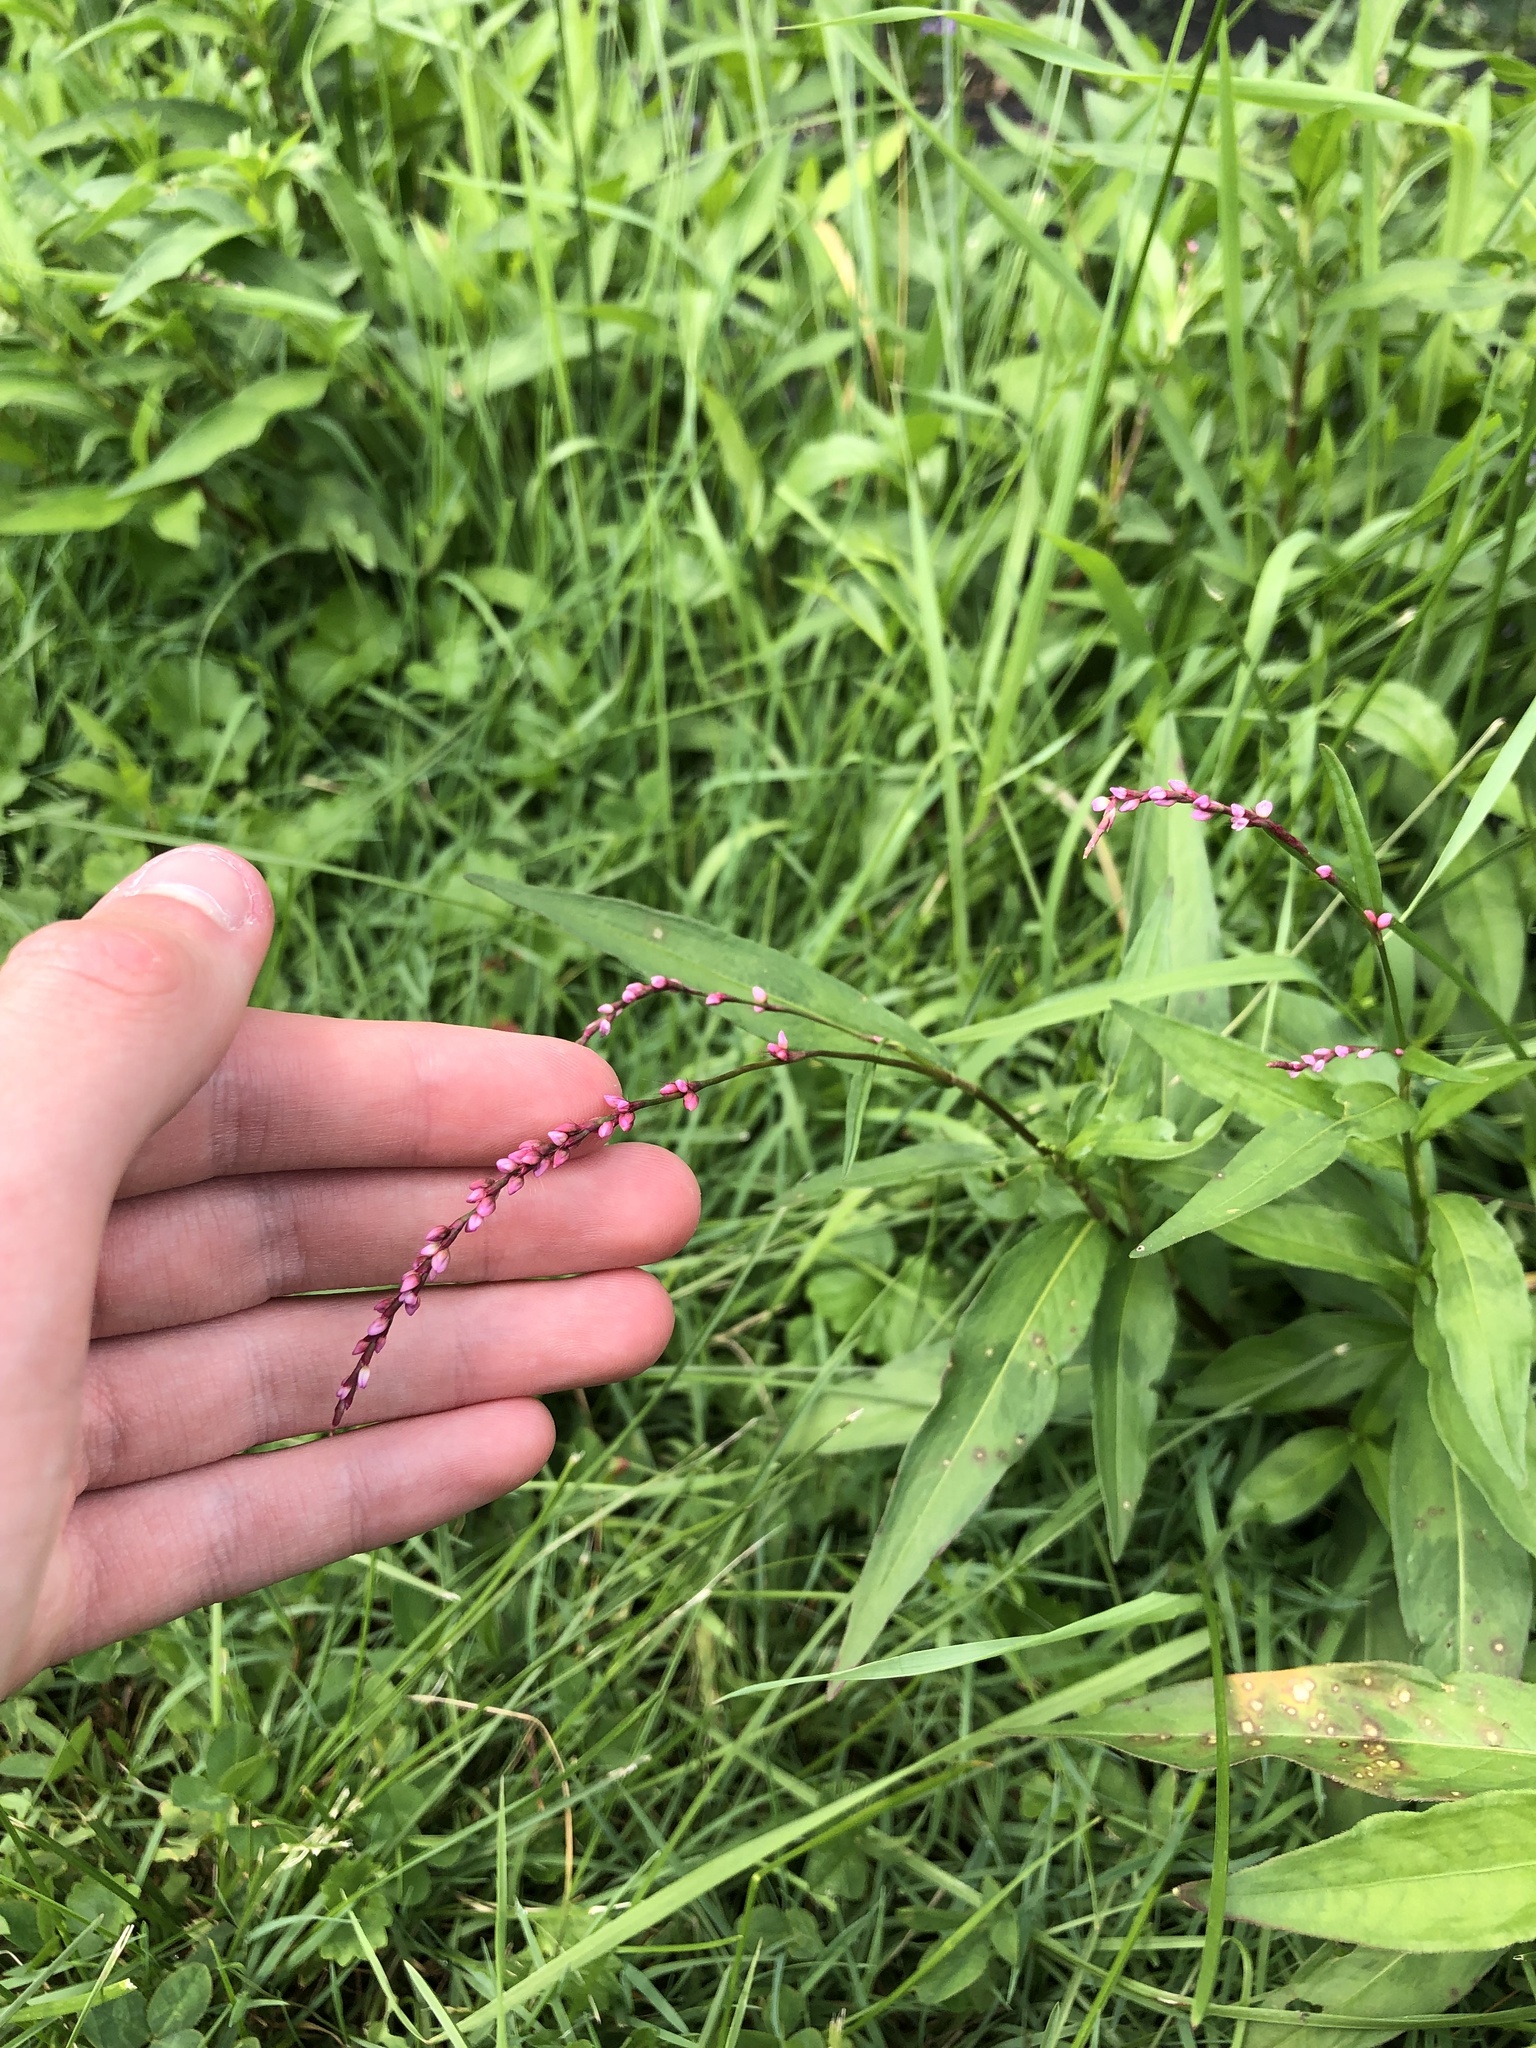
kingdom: Plantae
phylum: Tracheophyta
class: Magnoliopsida
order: Caryophyllales
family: Polygonaceae
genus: Persicaria
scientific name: Persicaria longiseta
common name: Bristly lady's-thumb
